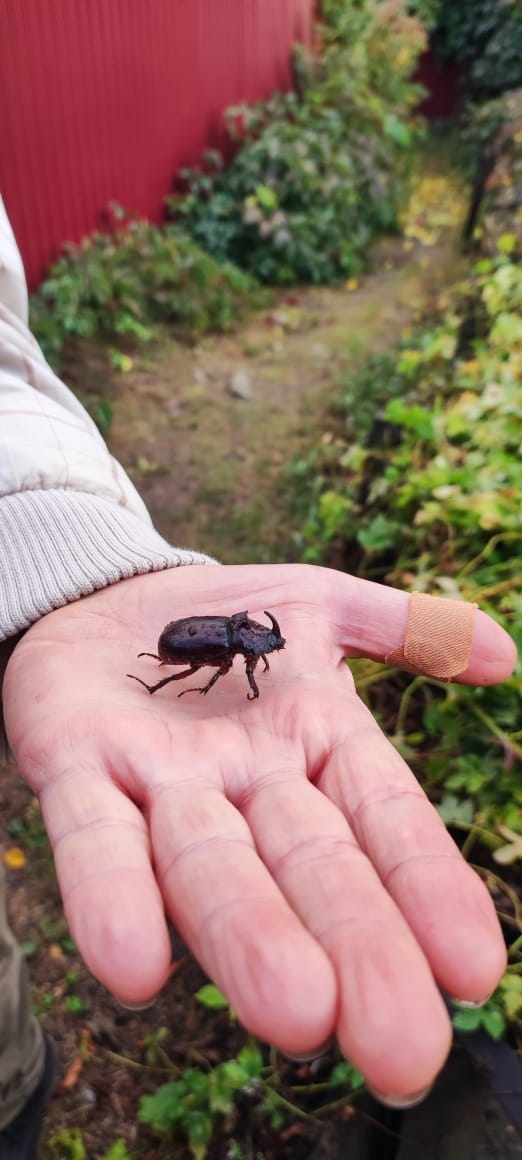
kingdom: Animalia
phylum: Arthropoda
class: Insecta
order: Coleoptera
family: Scarabaeidae
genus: Oryctes
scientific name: Oryctes nasicornis
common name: European rhinoceros beetle
